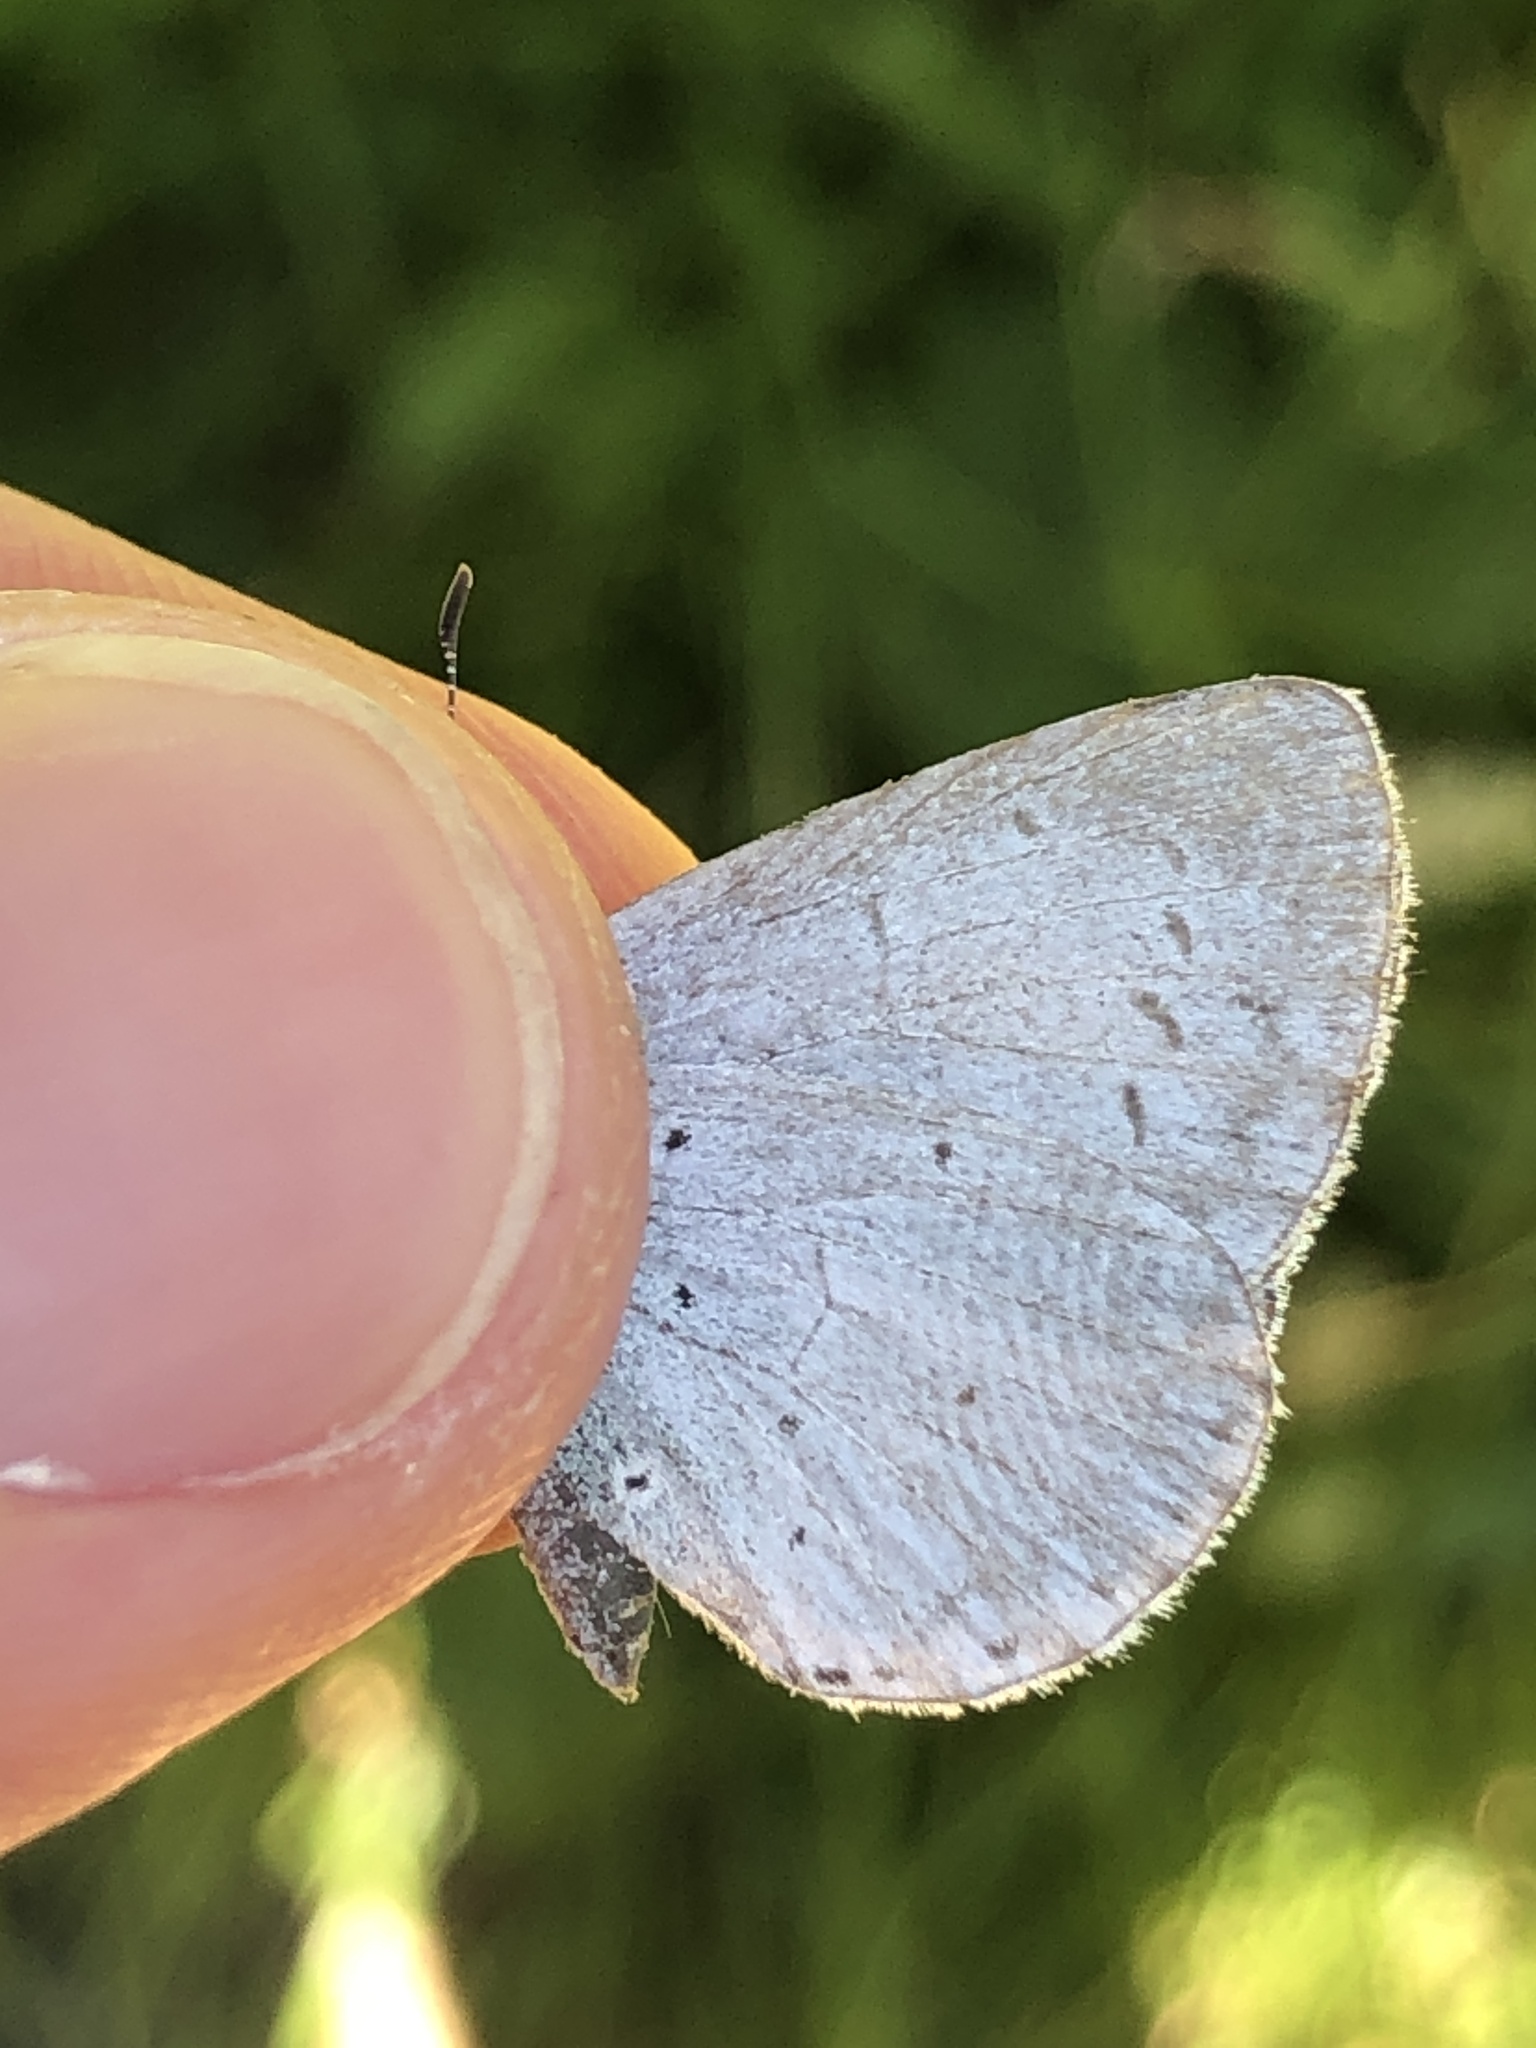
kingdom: Animalia
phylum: Arthropoda
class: Insecta
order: Lepidoptera
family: Lycaenidae
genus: Celastrina
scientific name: Celastrina argiolus
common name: Holly blue
